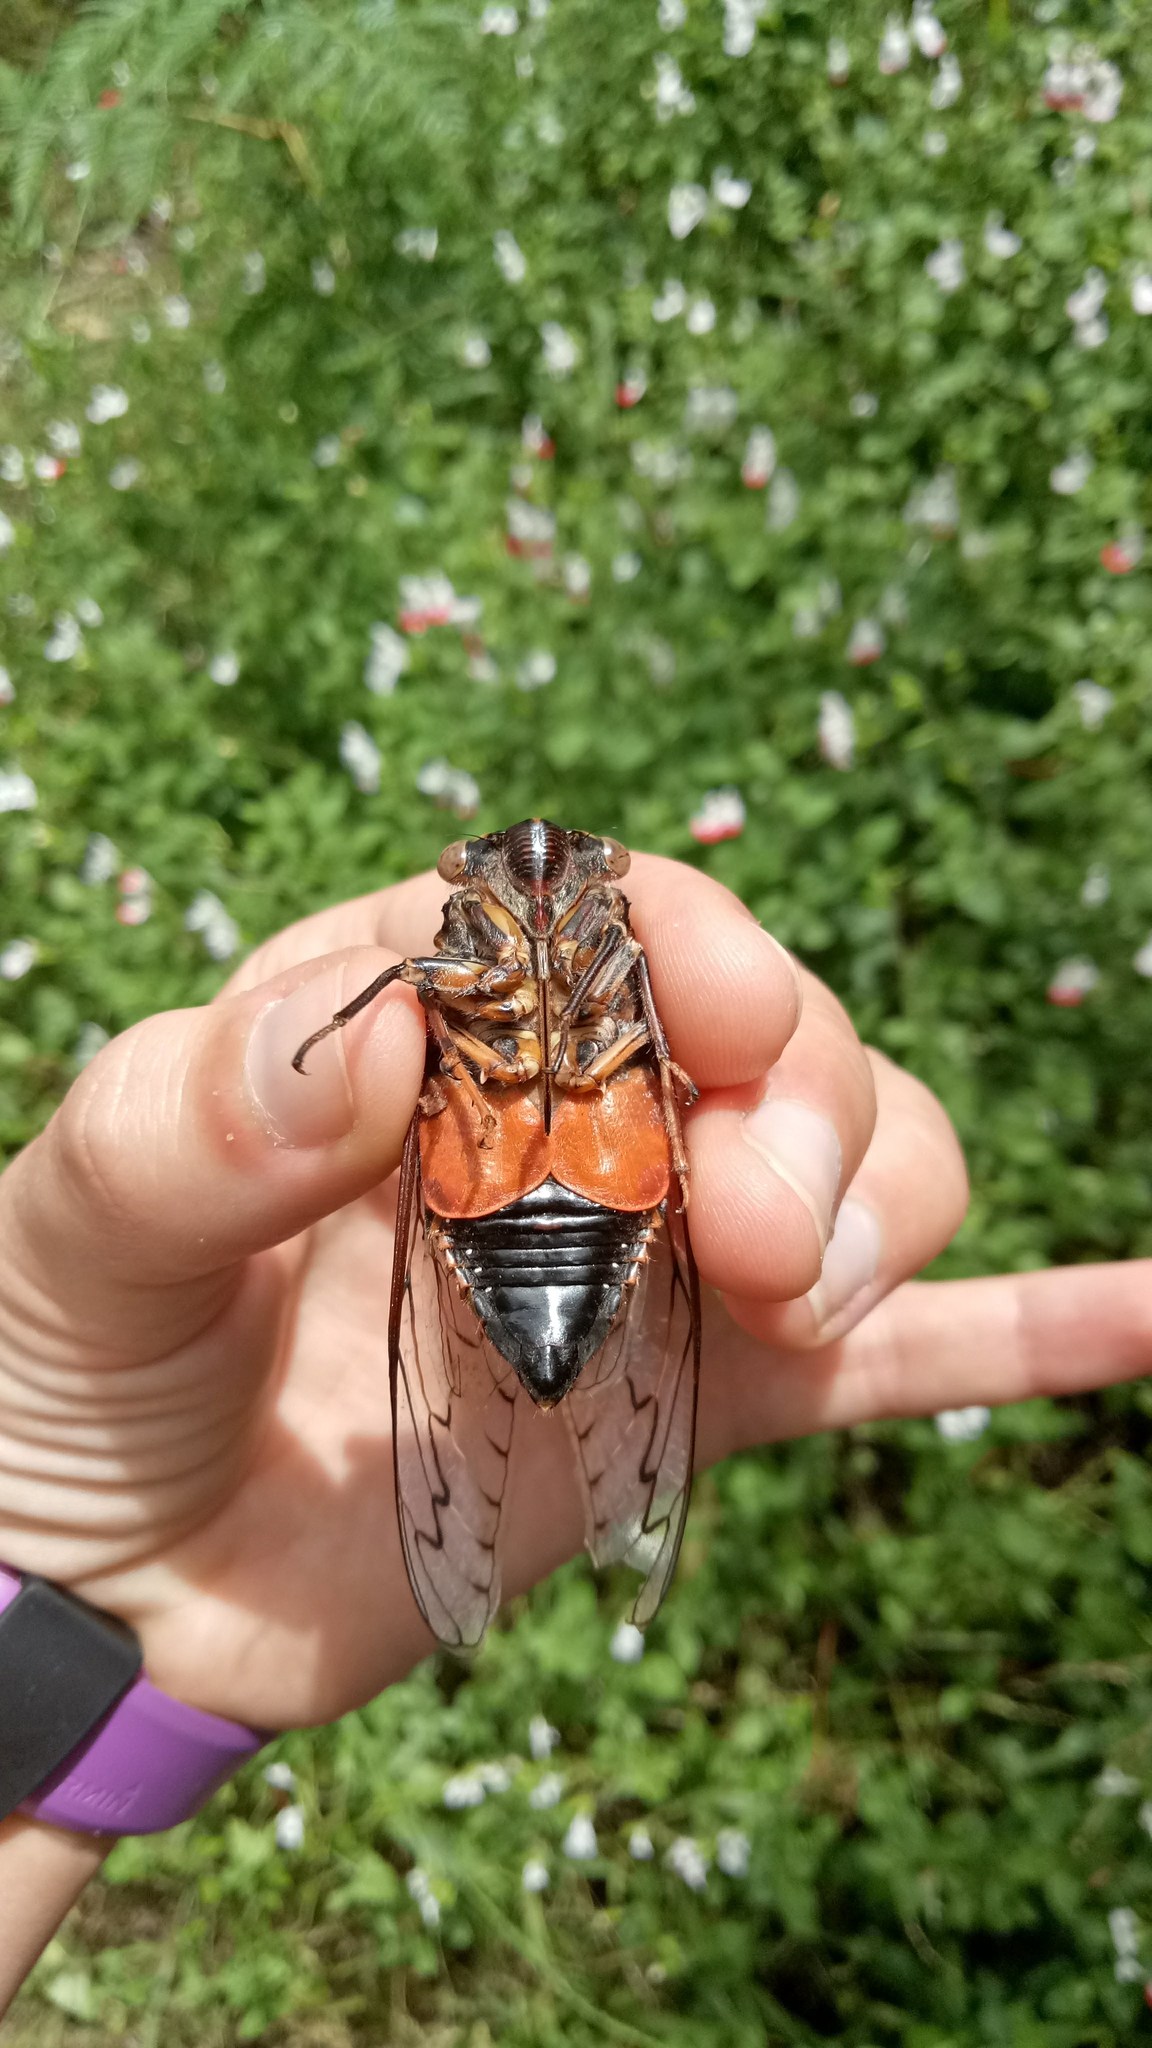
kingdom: Animalia
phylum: Arthropoda
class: Insecta
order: Hemiptera
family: Cicadidae
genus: Henicopsaltria
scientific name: Henicopsaltria eydouxii
